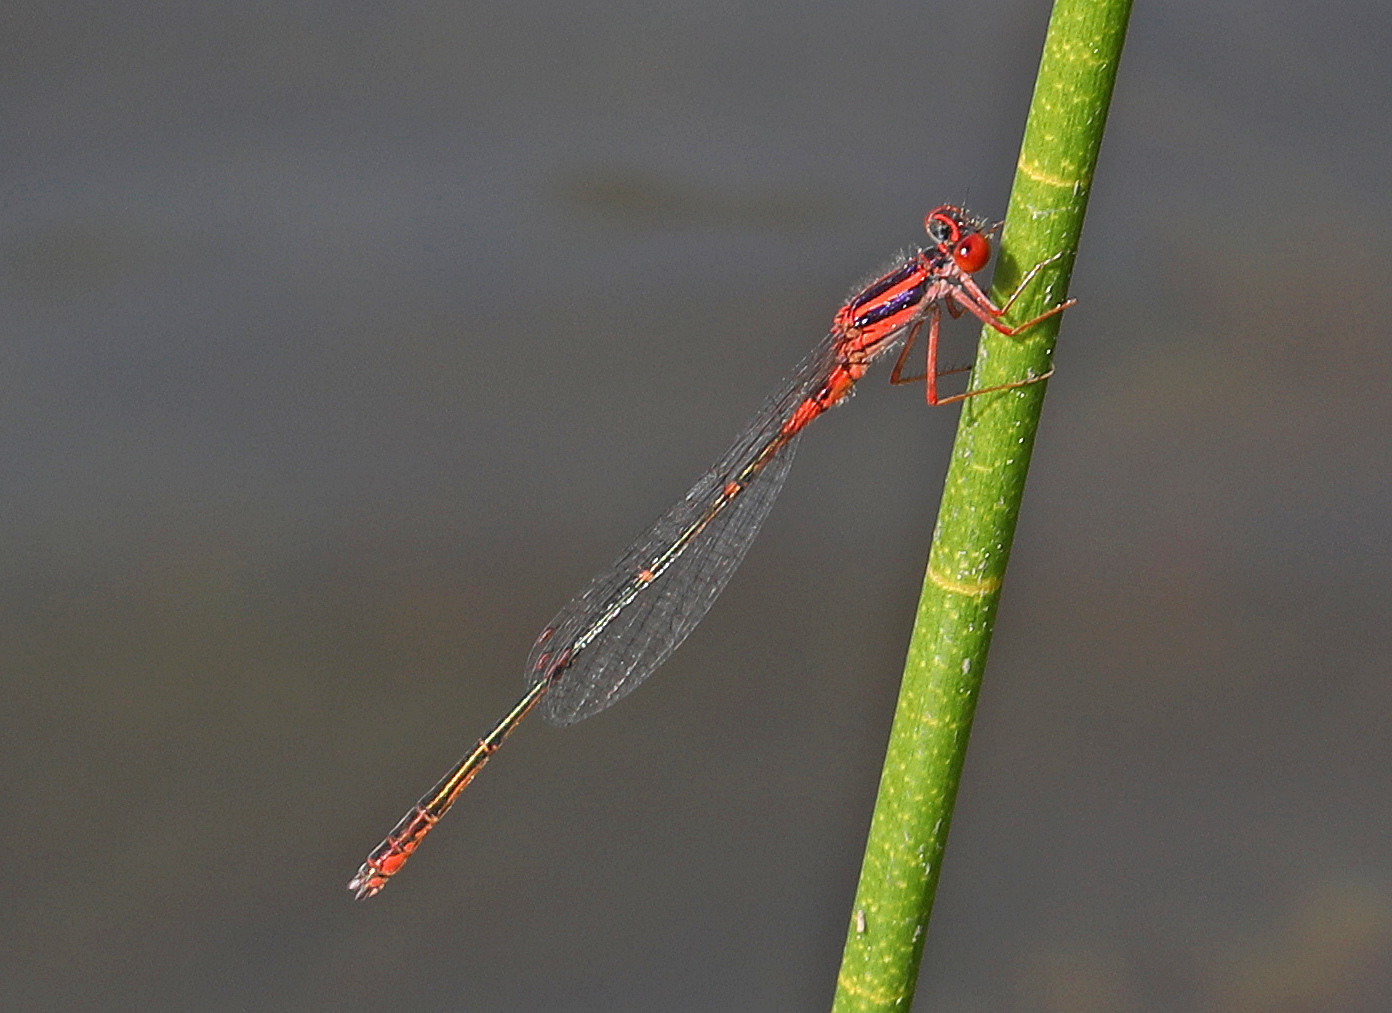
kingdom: Animalia
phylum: Arthropoda
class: Insecta
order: Odonata
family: Coenagrionidae
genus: Enallagma
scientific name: Enallagma concisum
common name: Cherry bluet
